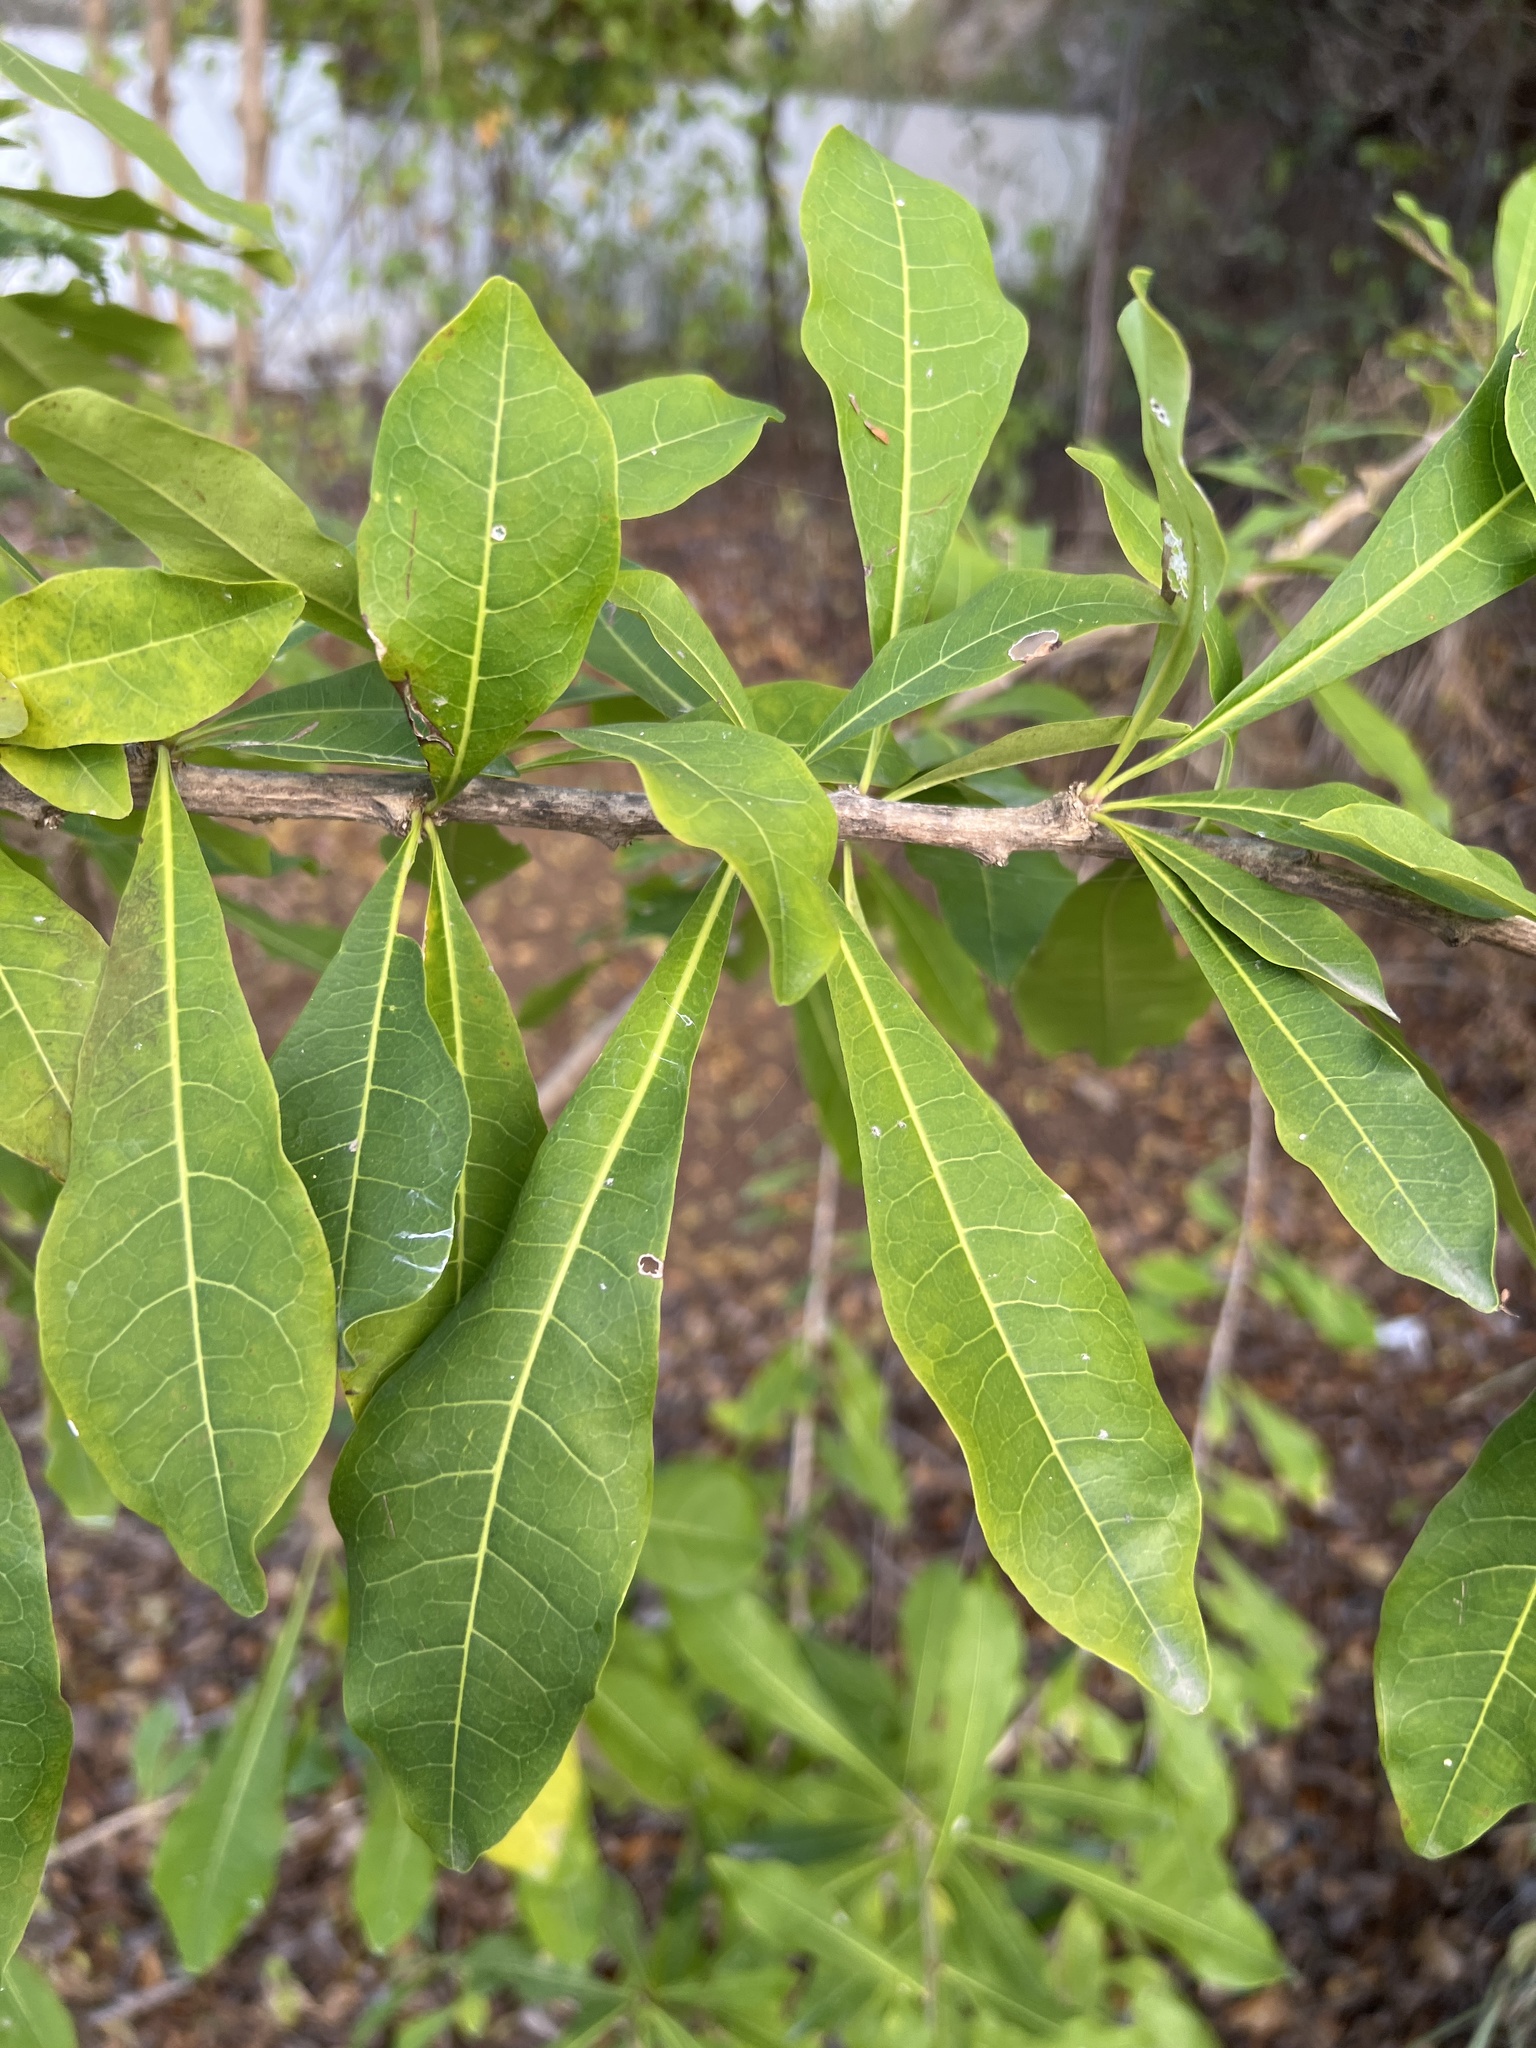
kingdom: Plantae
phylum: Tracheophyta
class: Magnoliopsida
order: Lamiales
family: Bignoniaceae
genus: Crescentia
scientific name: Crescentia cujete
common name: Calabash
